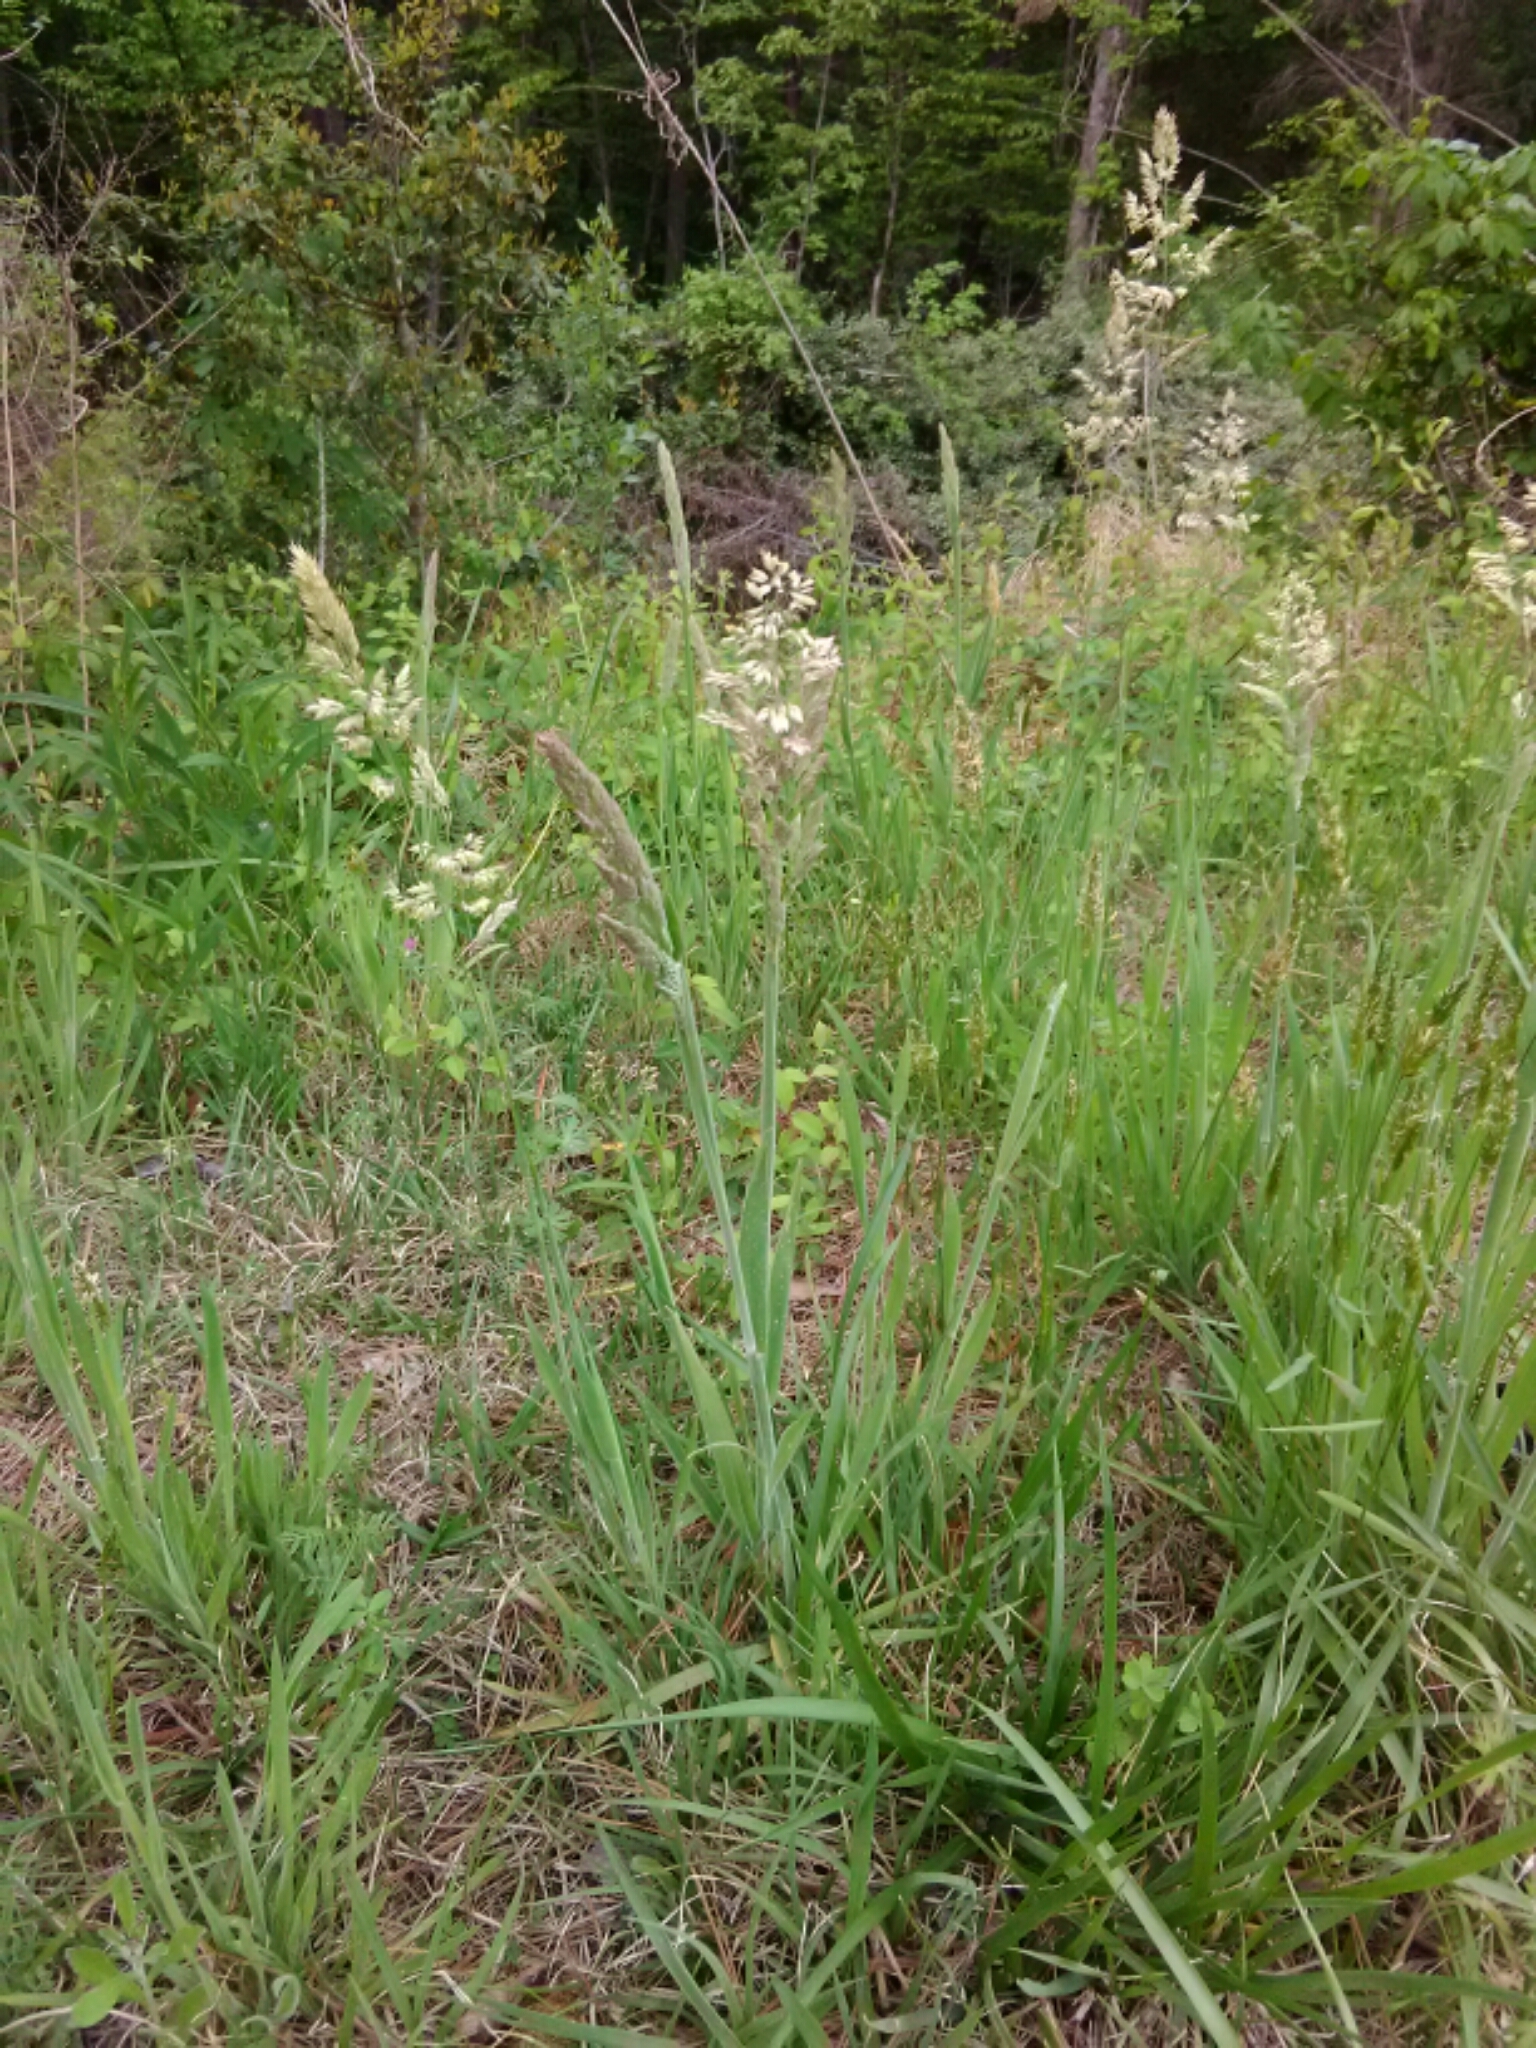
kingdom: Plantae
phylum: Tracheophyta
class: Liliopsida
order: Poales
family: Poaceae
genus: Holcus
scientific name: Holcus lanatus
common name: Yorkshire-fog
